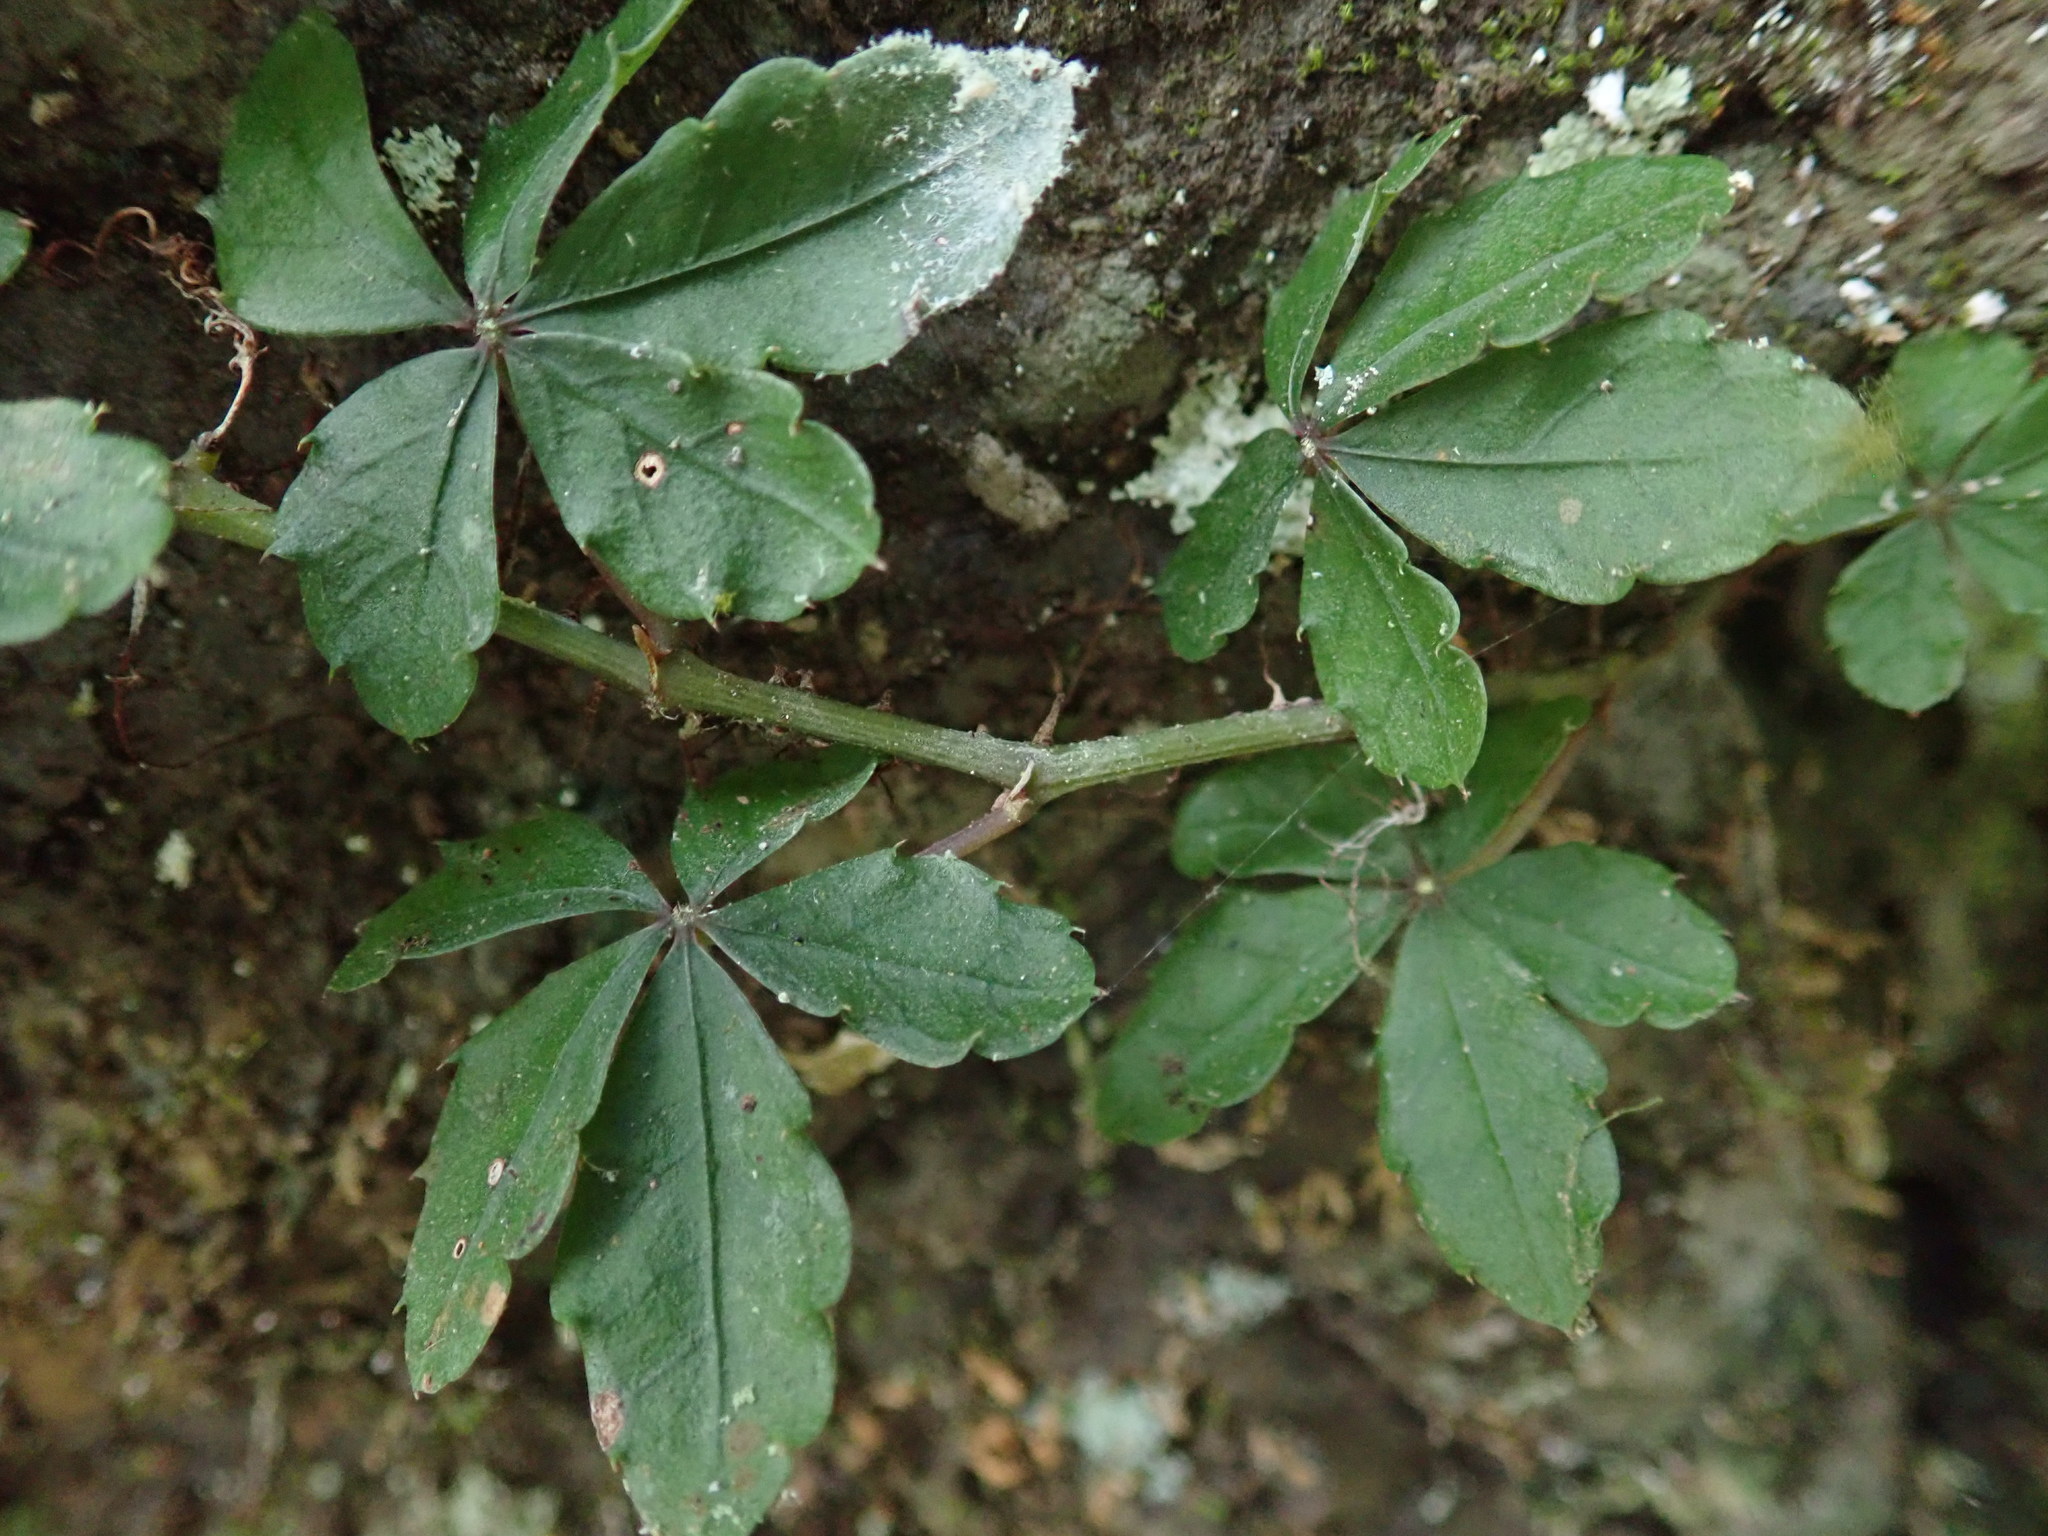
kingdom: Plantae
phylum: Tracheophyta
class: Magnoliopsida
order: Vitales
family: Vitaceae
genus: Tetrastigma
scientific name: Tetrastigma obtectum
